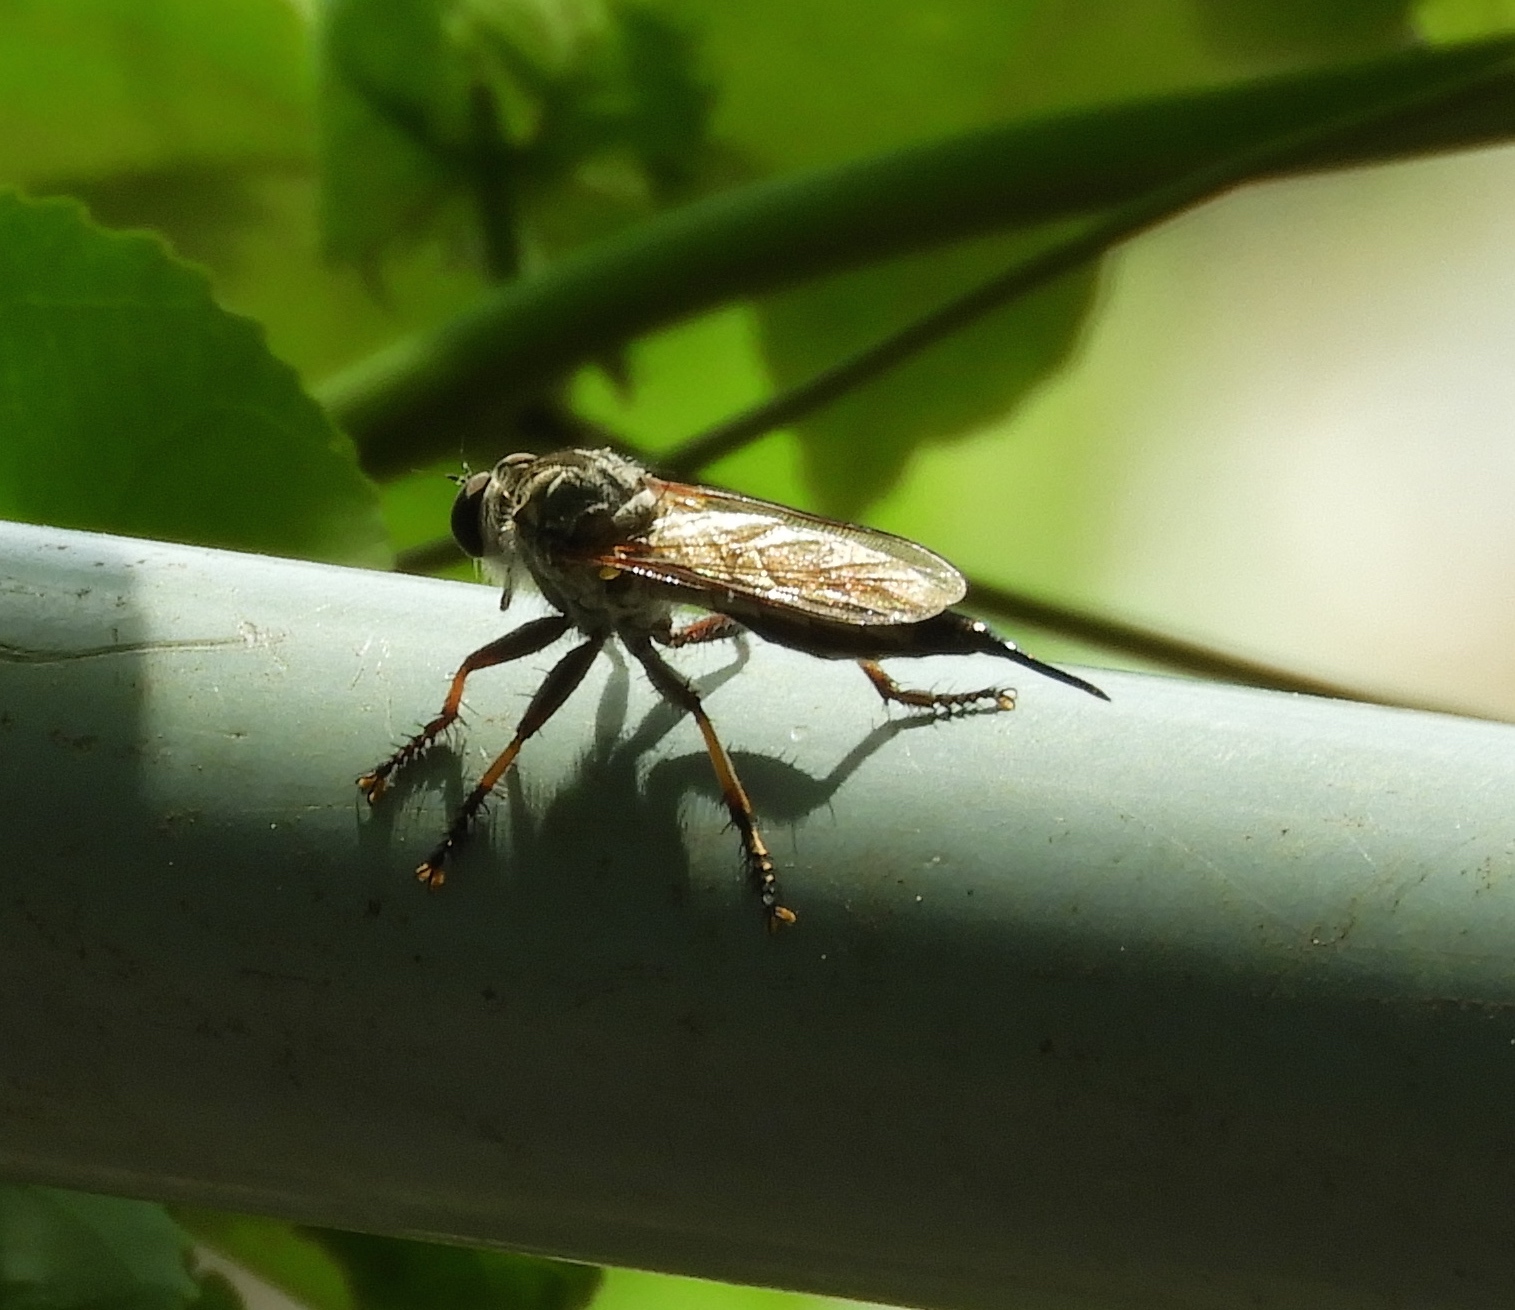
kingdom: Animalia
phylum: Arthropoda
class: Insecta
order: Diptera
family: Asilidae
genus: Efferia
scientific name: Efferia
